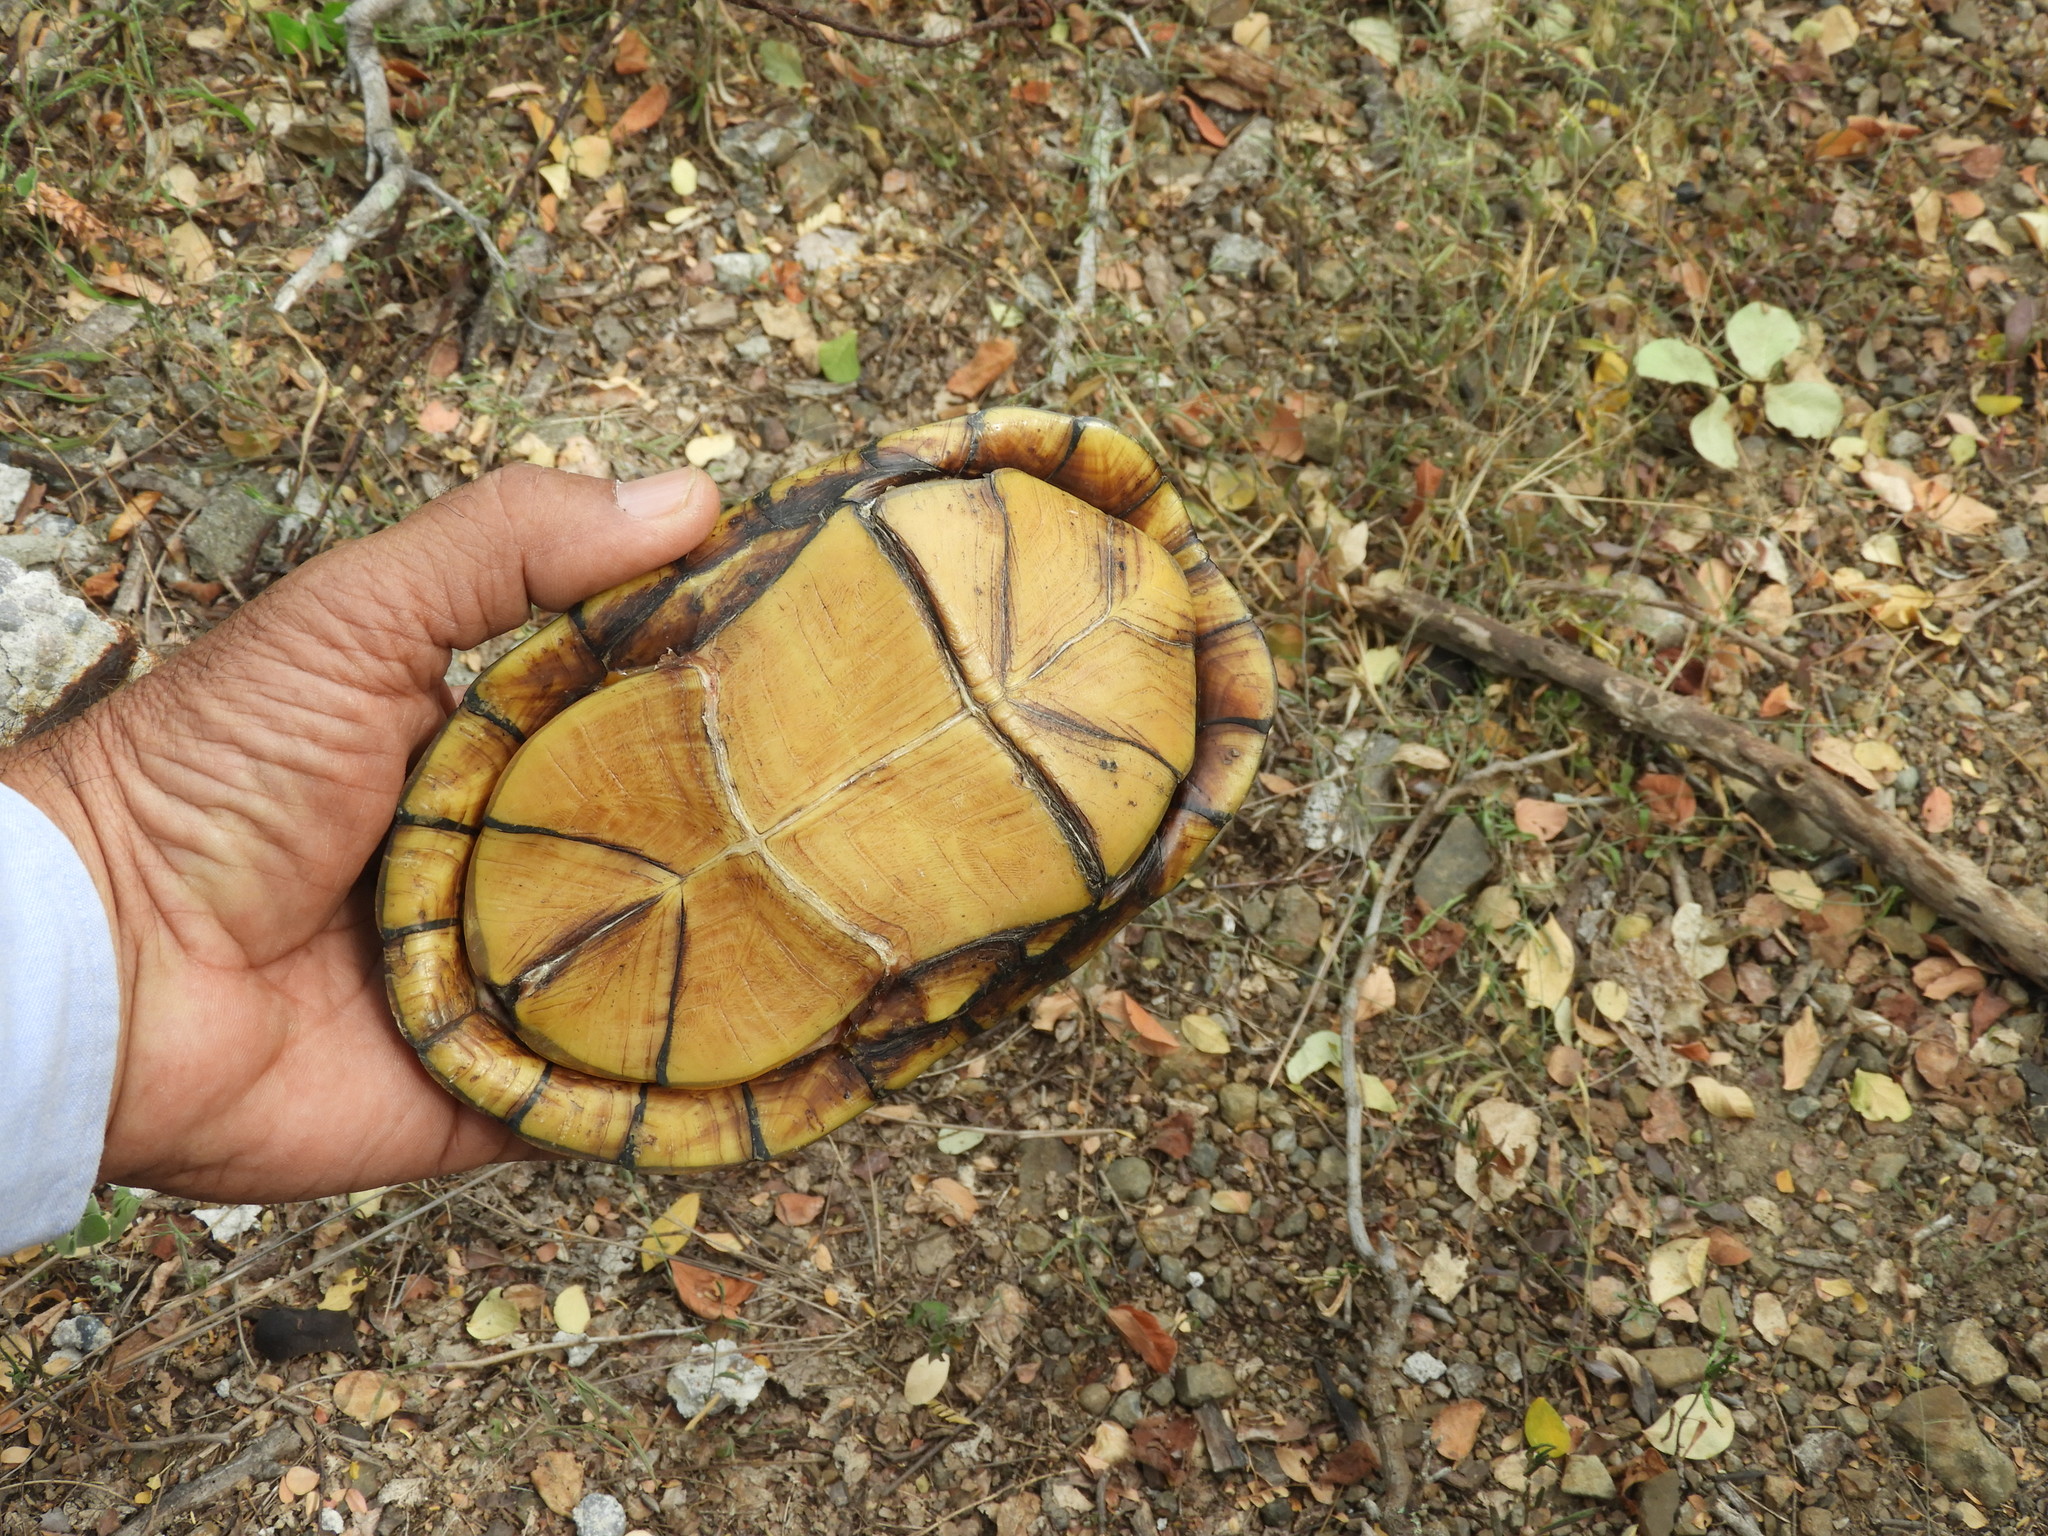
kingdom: Animalia
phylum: Chordata
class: Testudines
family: Kinosternidae
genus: Kinosternon
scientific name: Kinosternon integrum
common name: Mexican mud turtle
